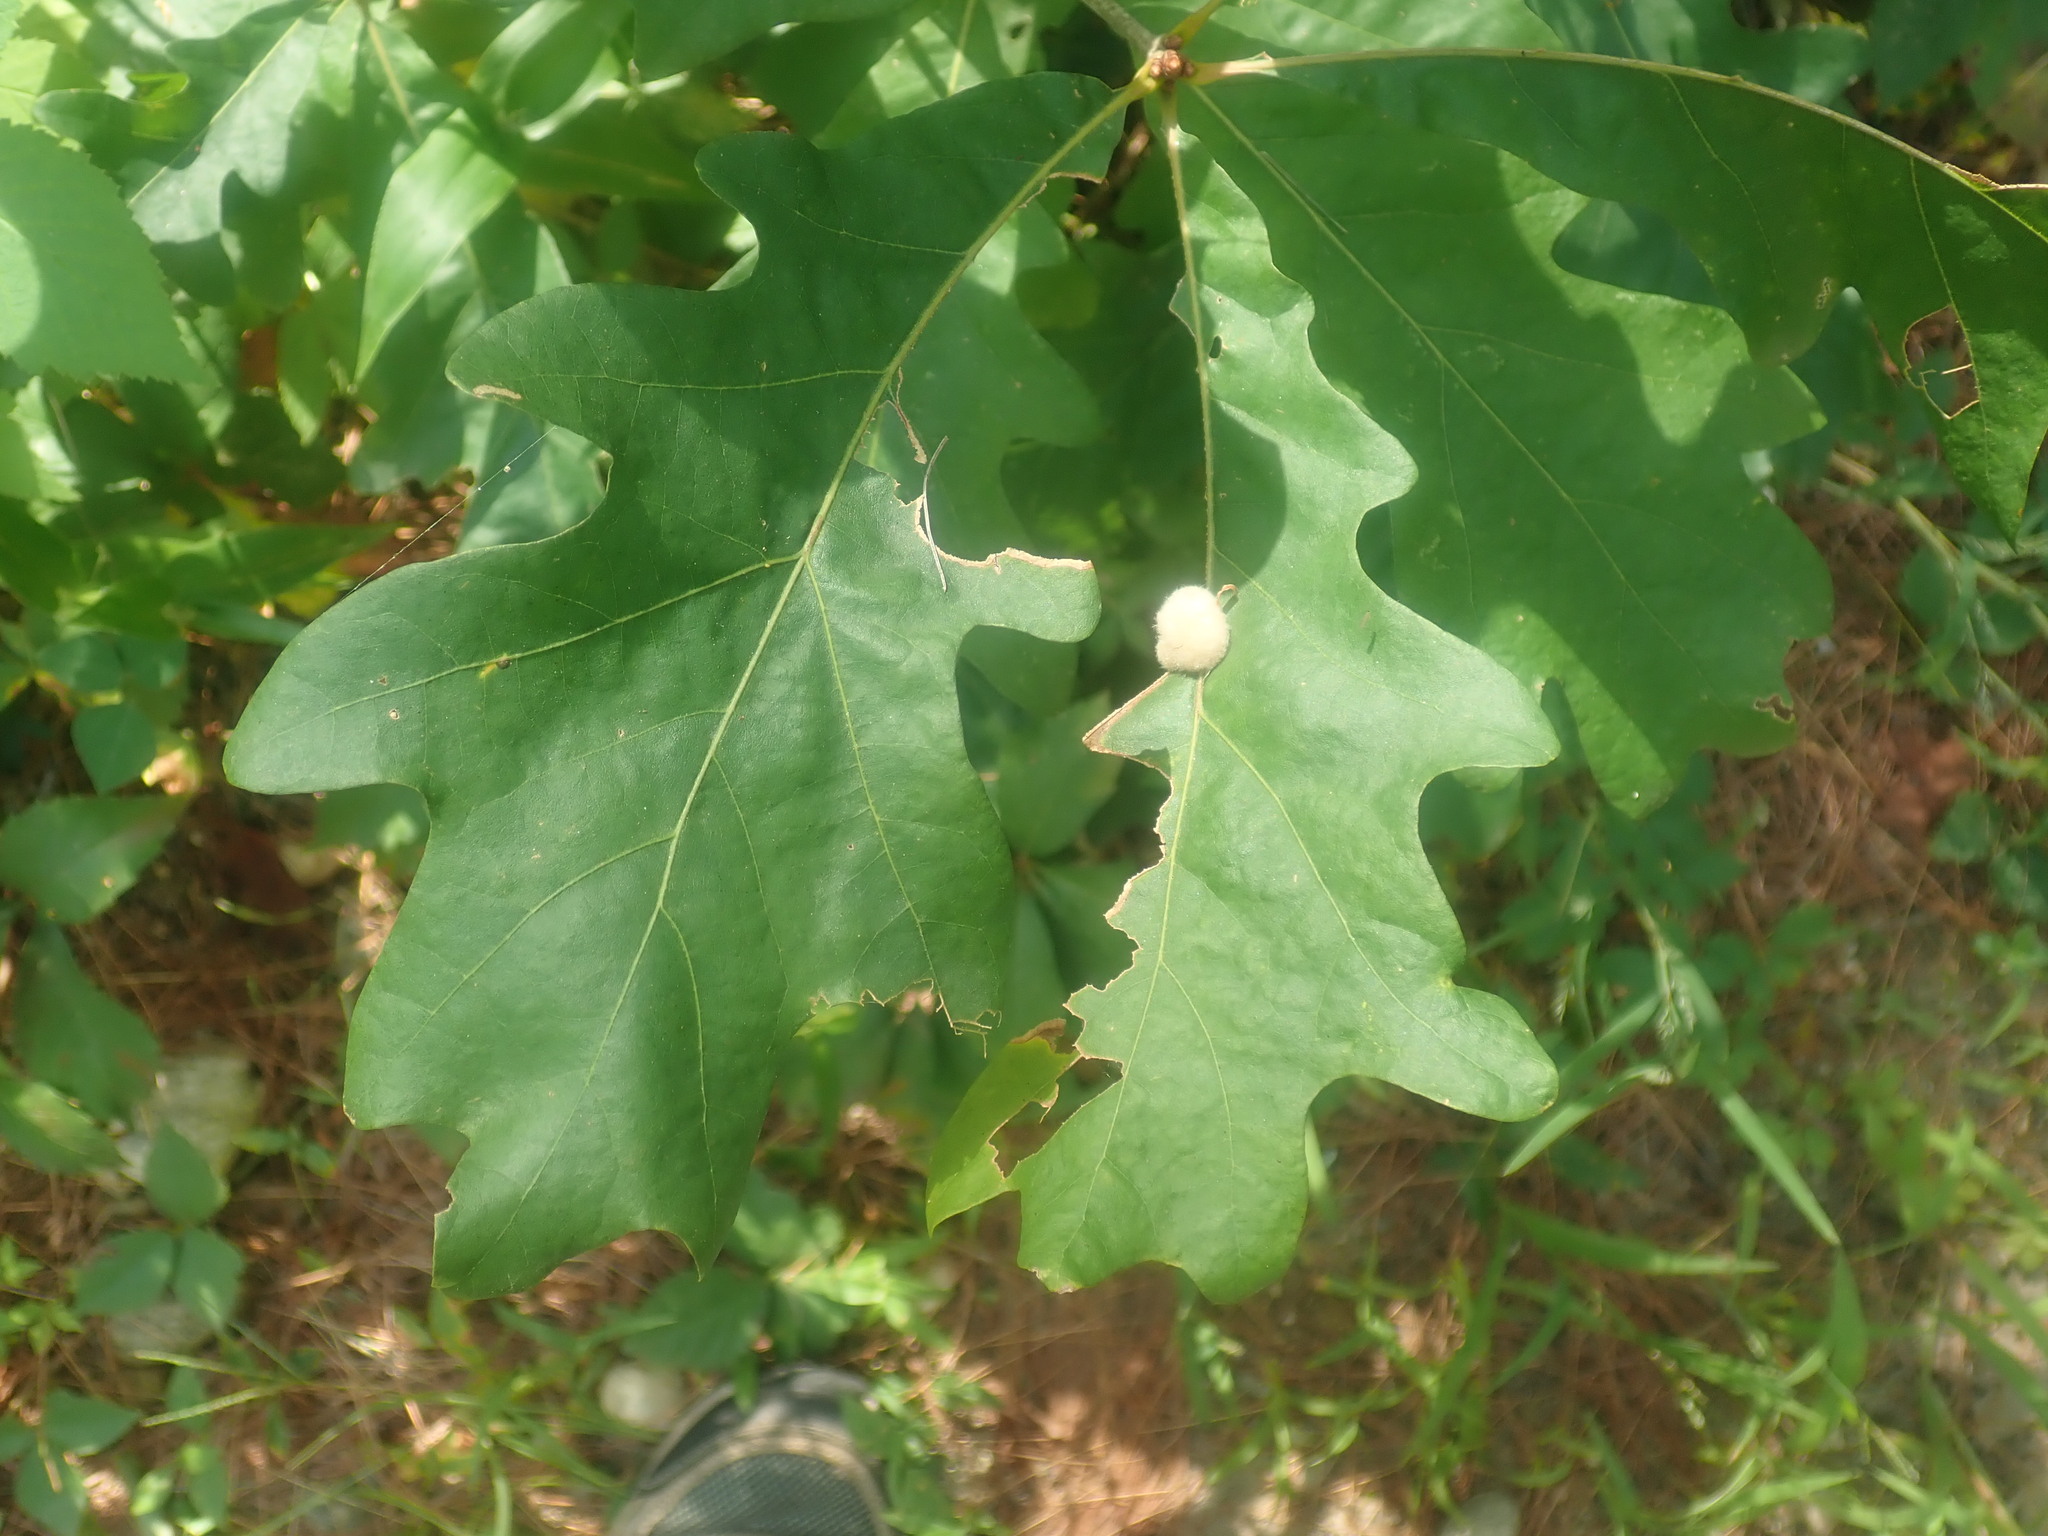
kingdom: Plantae
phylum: Tracheophyta
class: Magnoliopsida
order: Fagales
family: Fagaceae
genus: Quercus
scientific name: Quercus alba
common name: White oak
